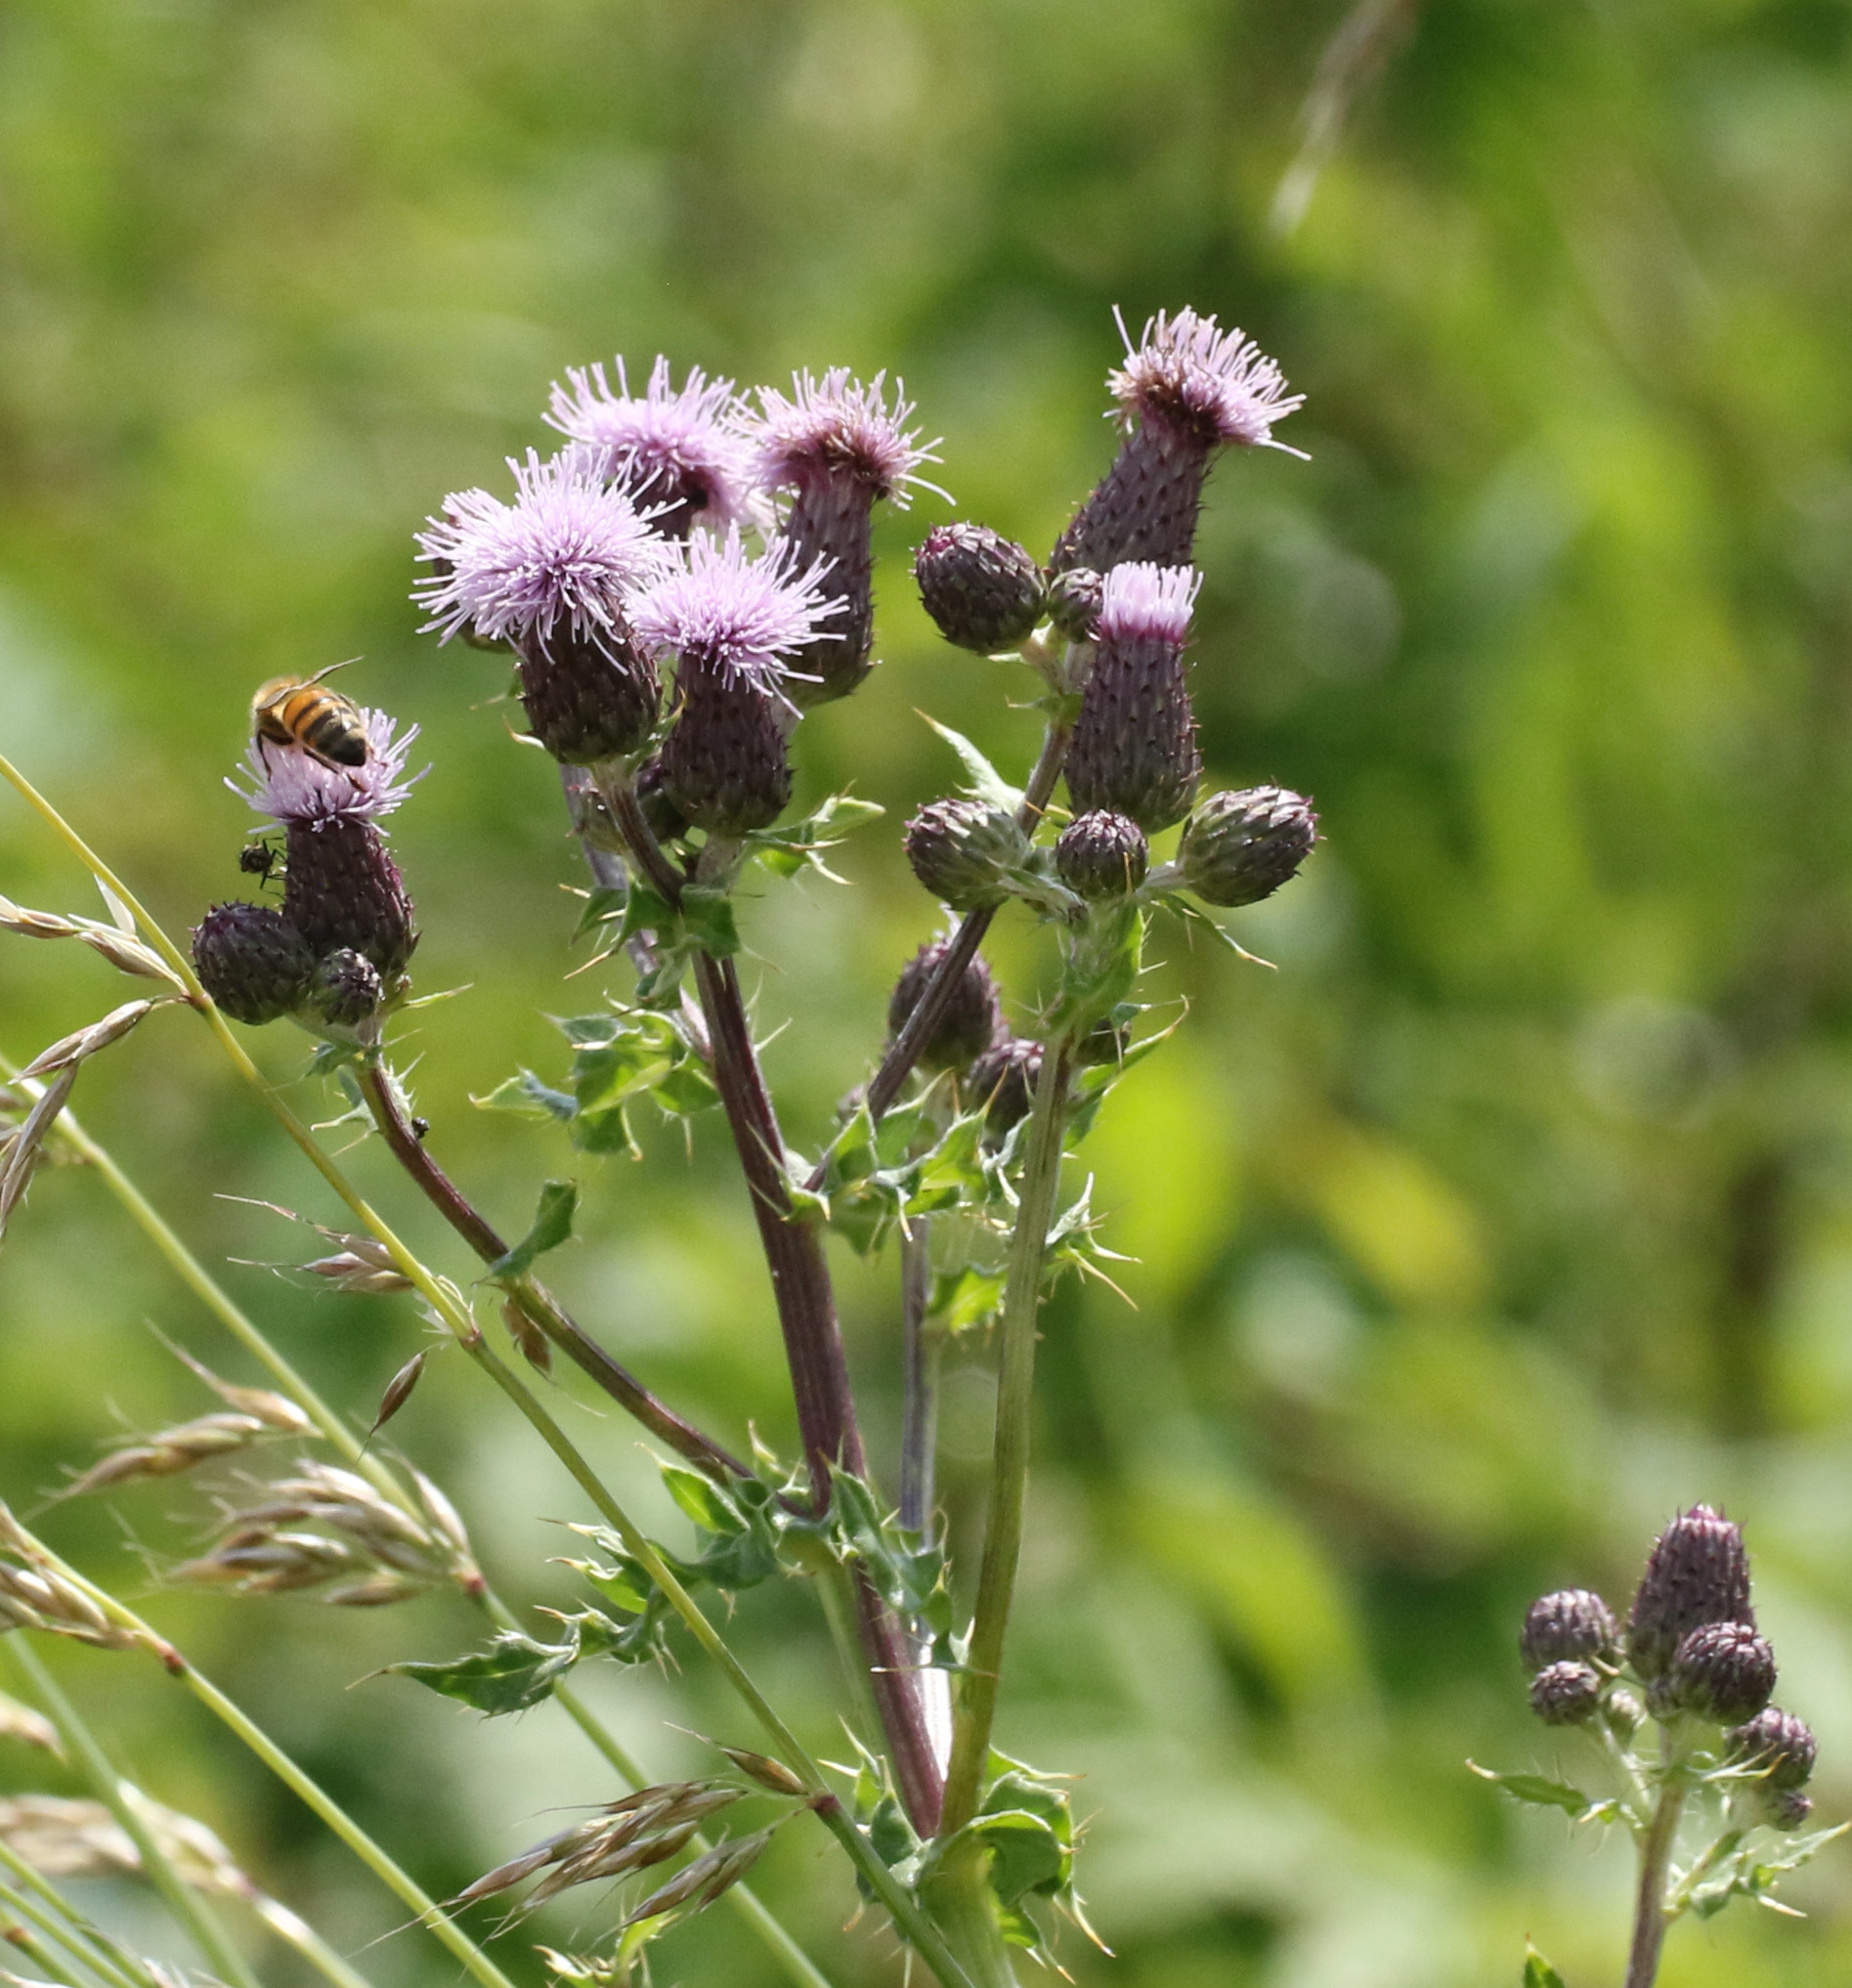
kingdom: Plantae
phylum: Tracheophyta
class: Magnoliopsida
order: Asterales
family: Asteraceae
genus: Cirsium
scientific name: Cirsium arvense
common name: Creeping thistle
